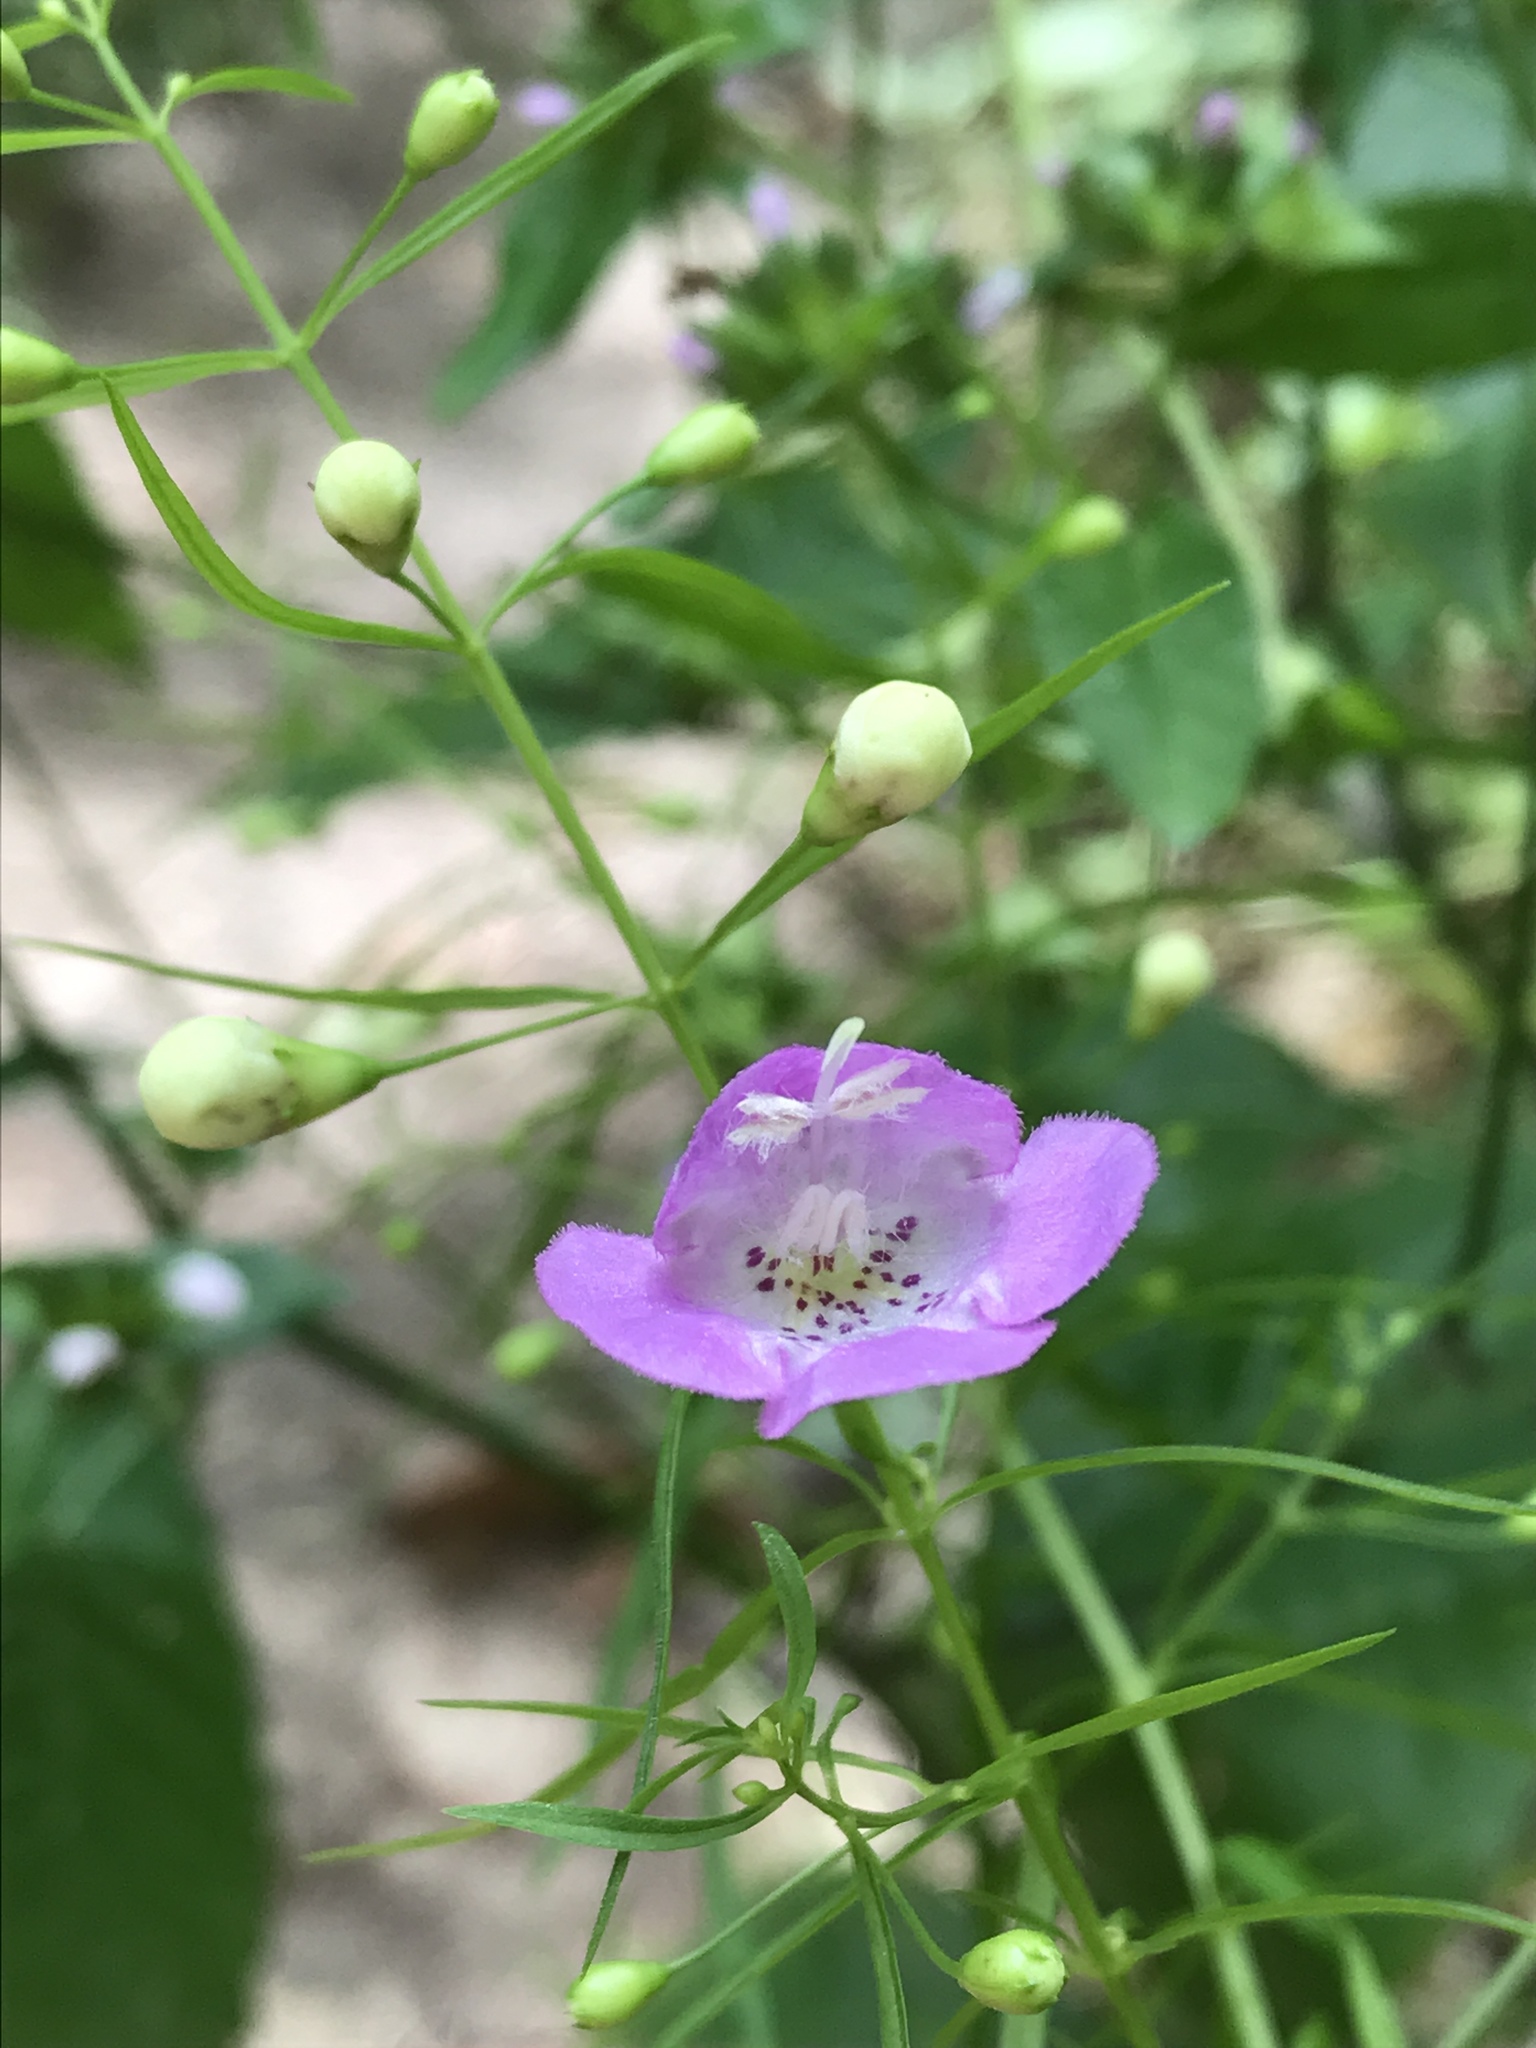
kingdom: Plantae
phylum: Tracheophyta
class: Magnoliopsida
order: Lamiales
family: Orobanchaceae
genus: Agalinis
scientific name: Agalinis tenuifolia
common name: Slender agalinis
